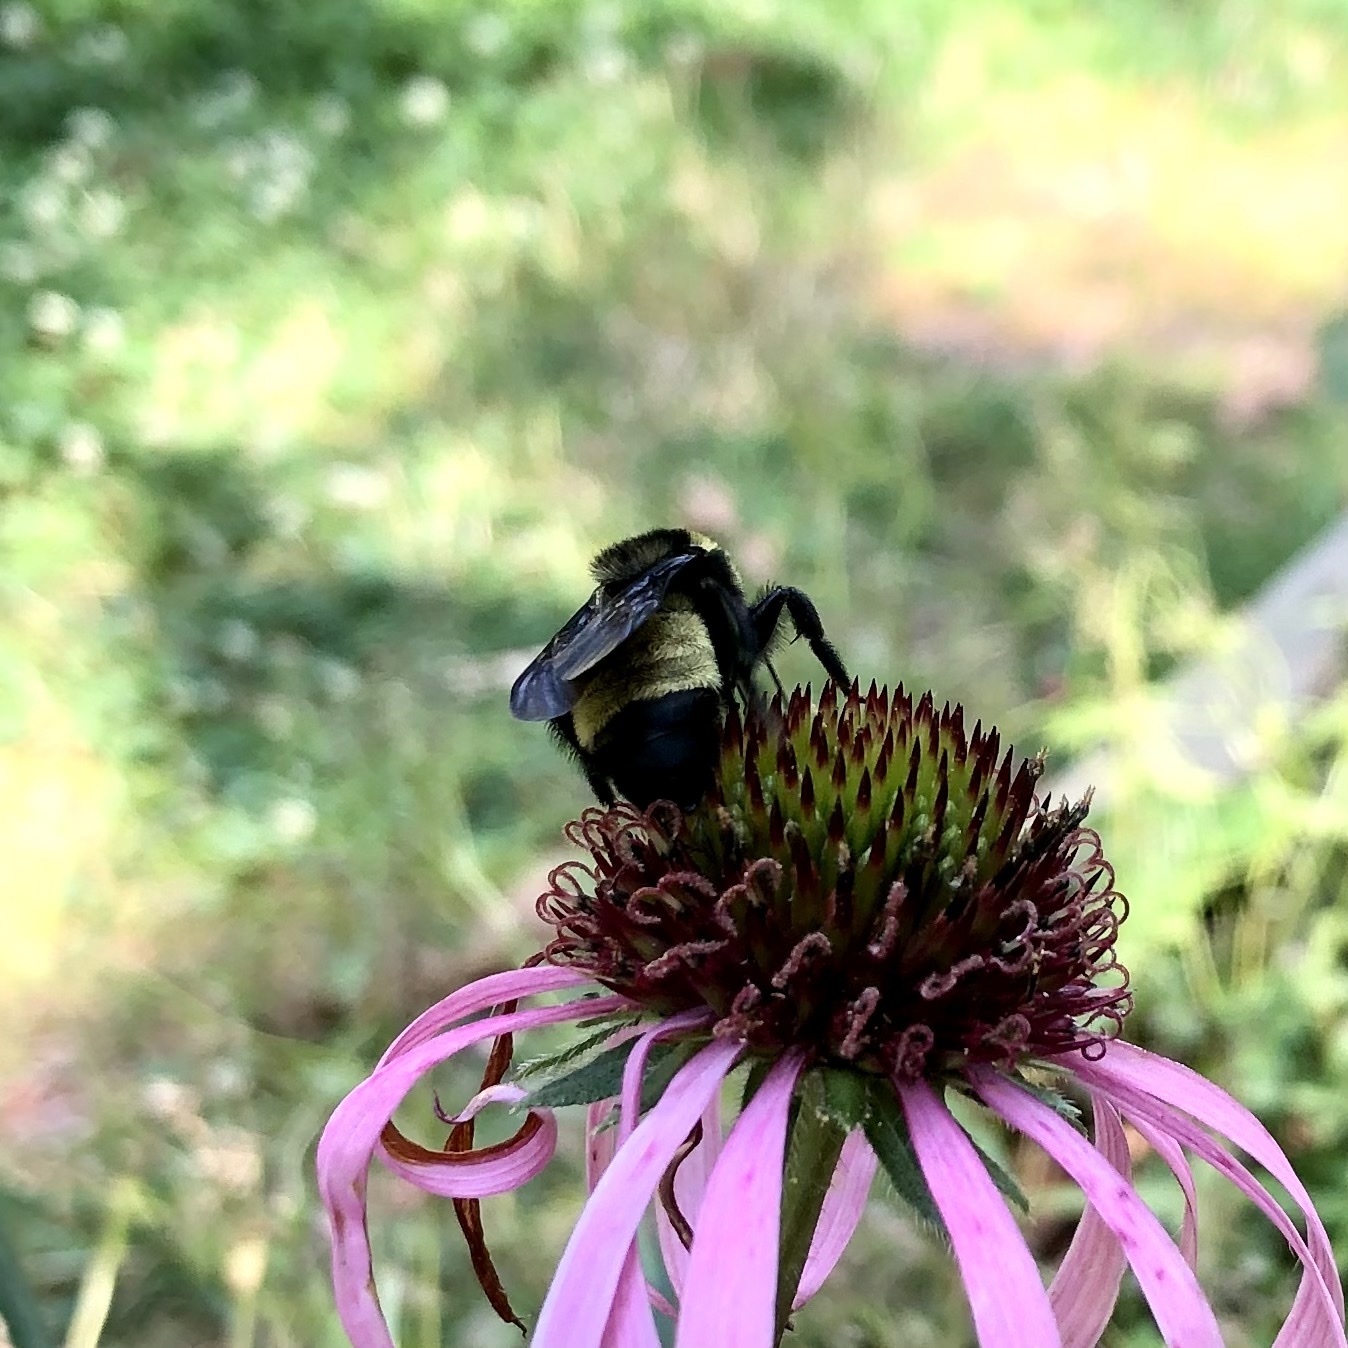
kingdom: Animalia
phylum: Arthropoda
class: Insecta
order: Hymenoptera
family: Apidae
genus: Bombus
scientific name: Bombus pensylvanicus
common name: Bumble bee
